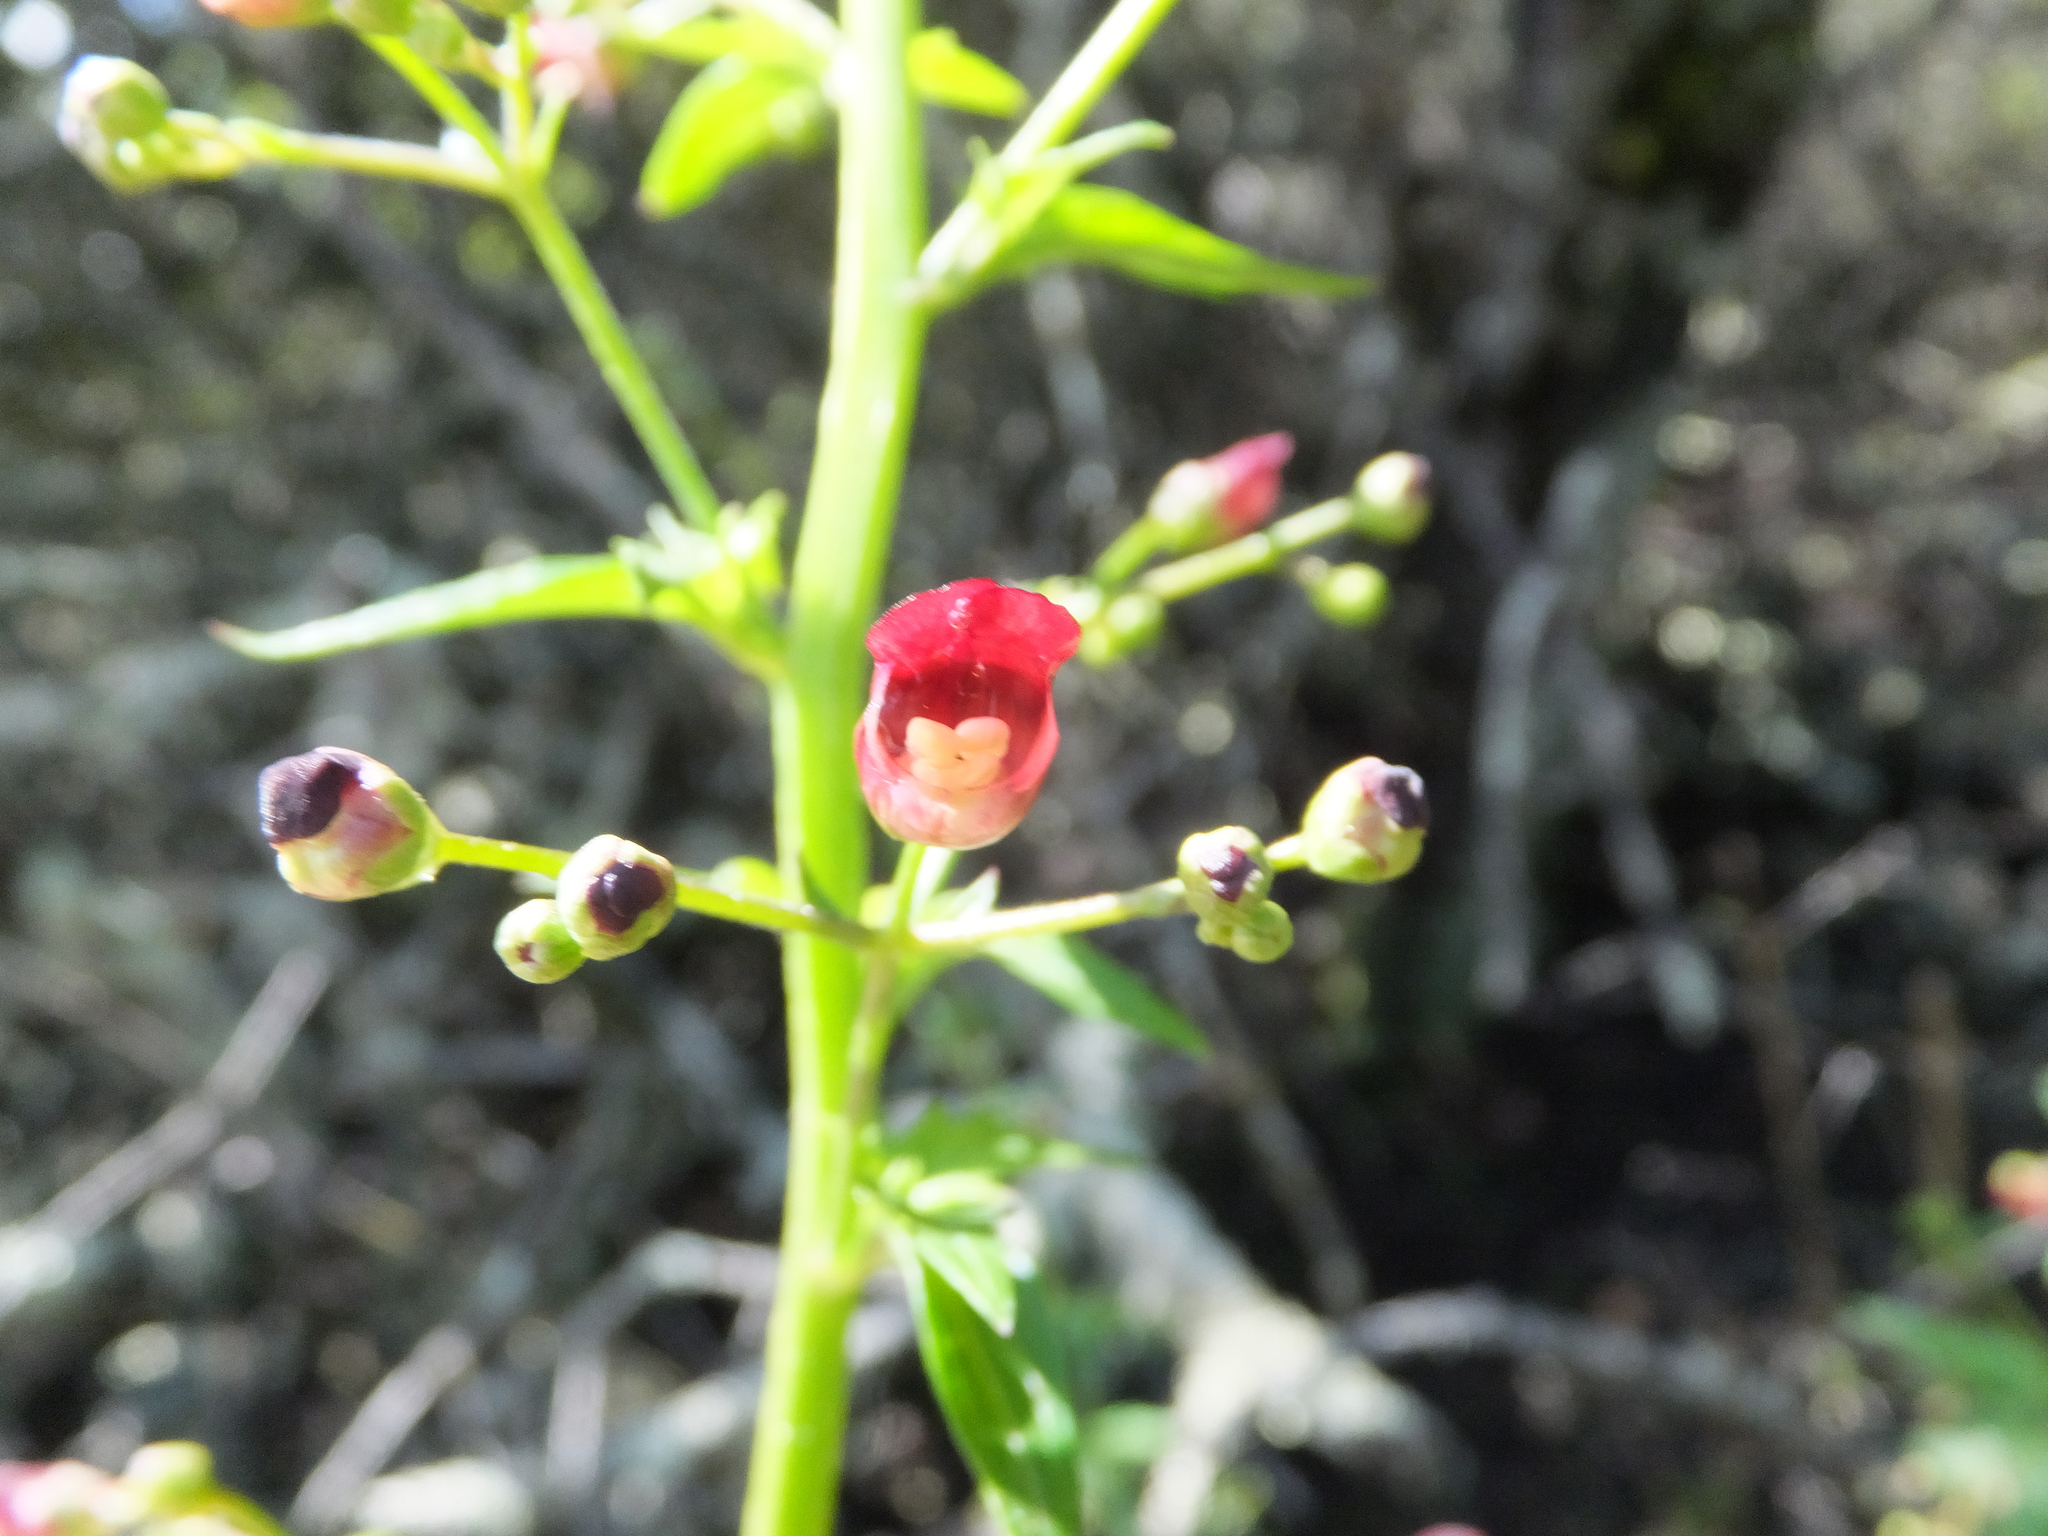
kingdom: Plantae
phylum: Tracheophyta
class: Magnoliopsida
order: Lamiales
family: Scrophulariaceae
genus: Scrophularia
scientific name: Scrophularia californica
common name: California figwort
